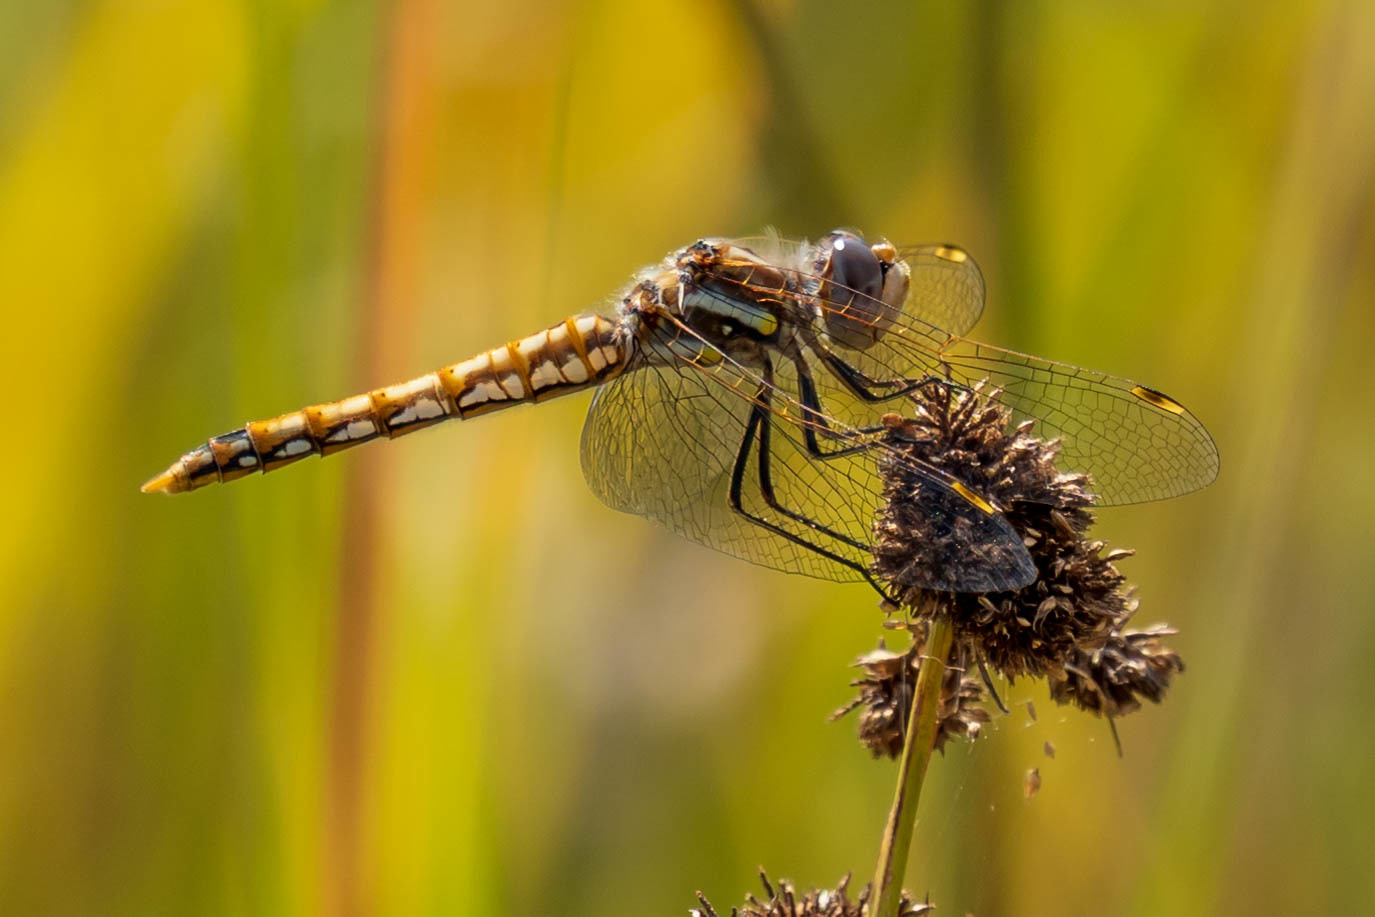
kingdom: Animalia
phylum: Arthropoda
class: Insecta
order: Odonata
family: Libellulidae
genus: Sympetrum
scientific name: Sympetrum corruptum
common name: Variegated meadowhawk
